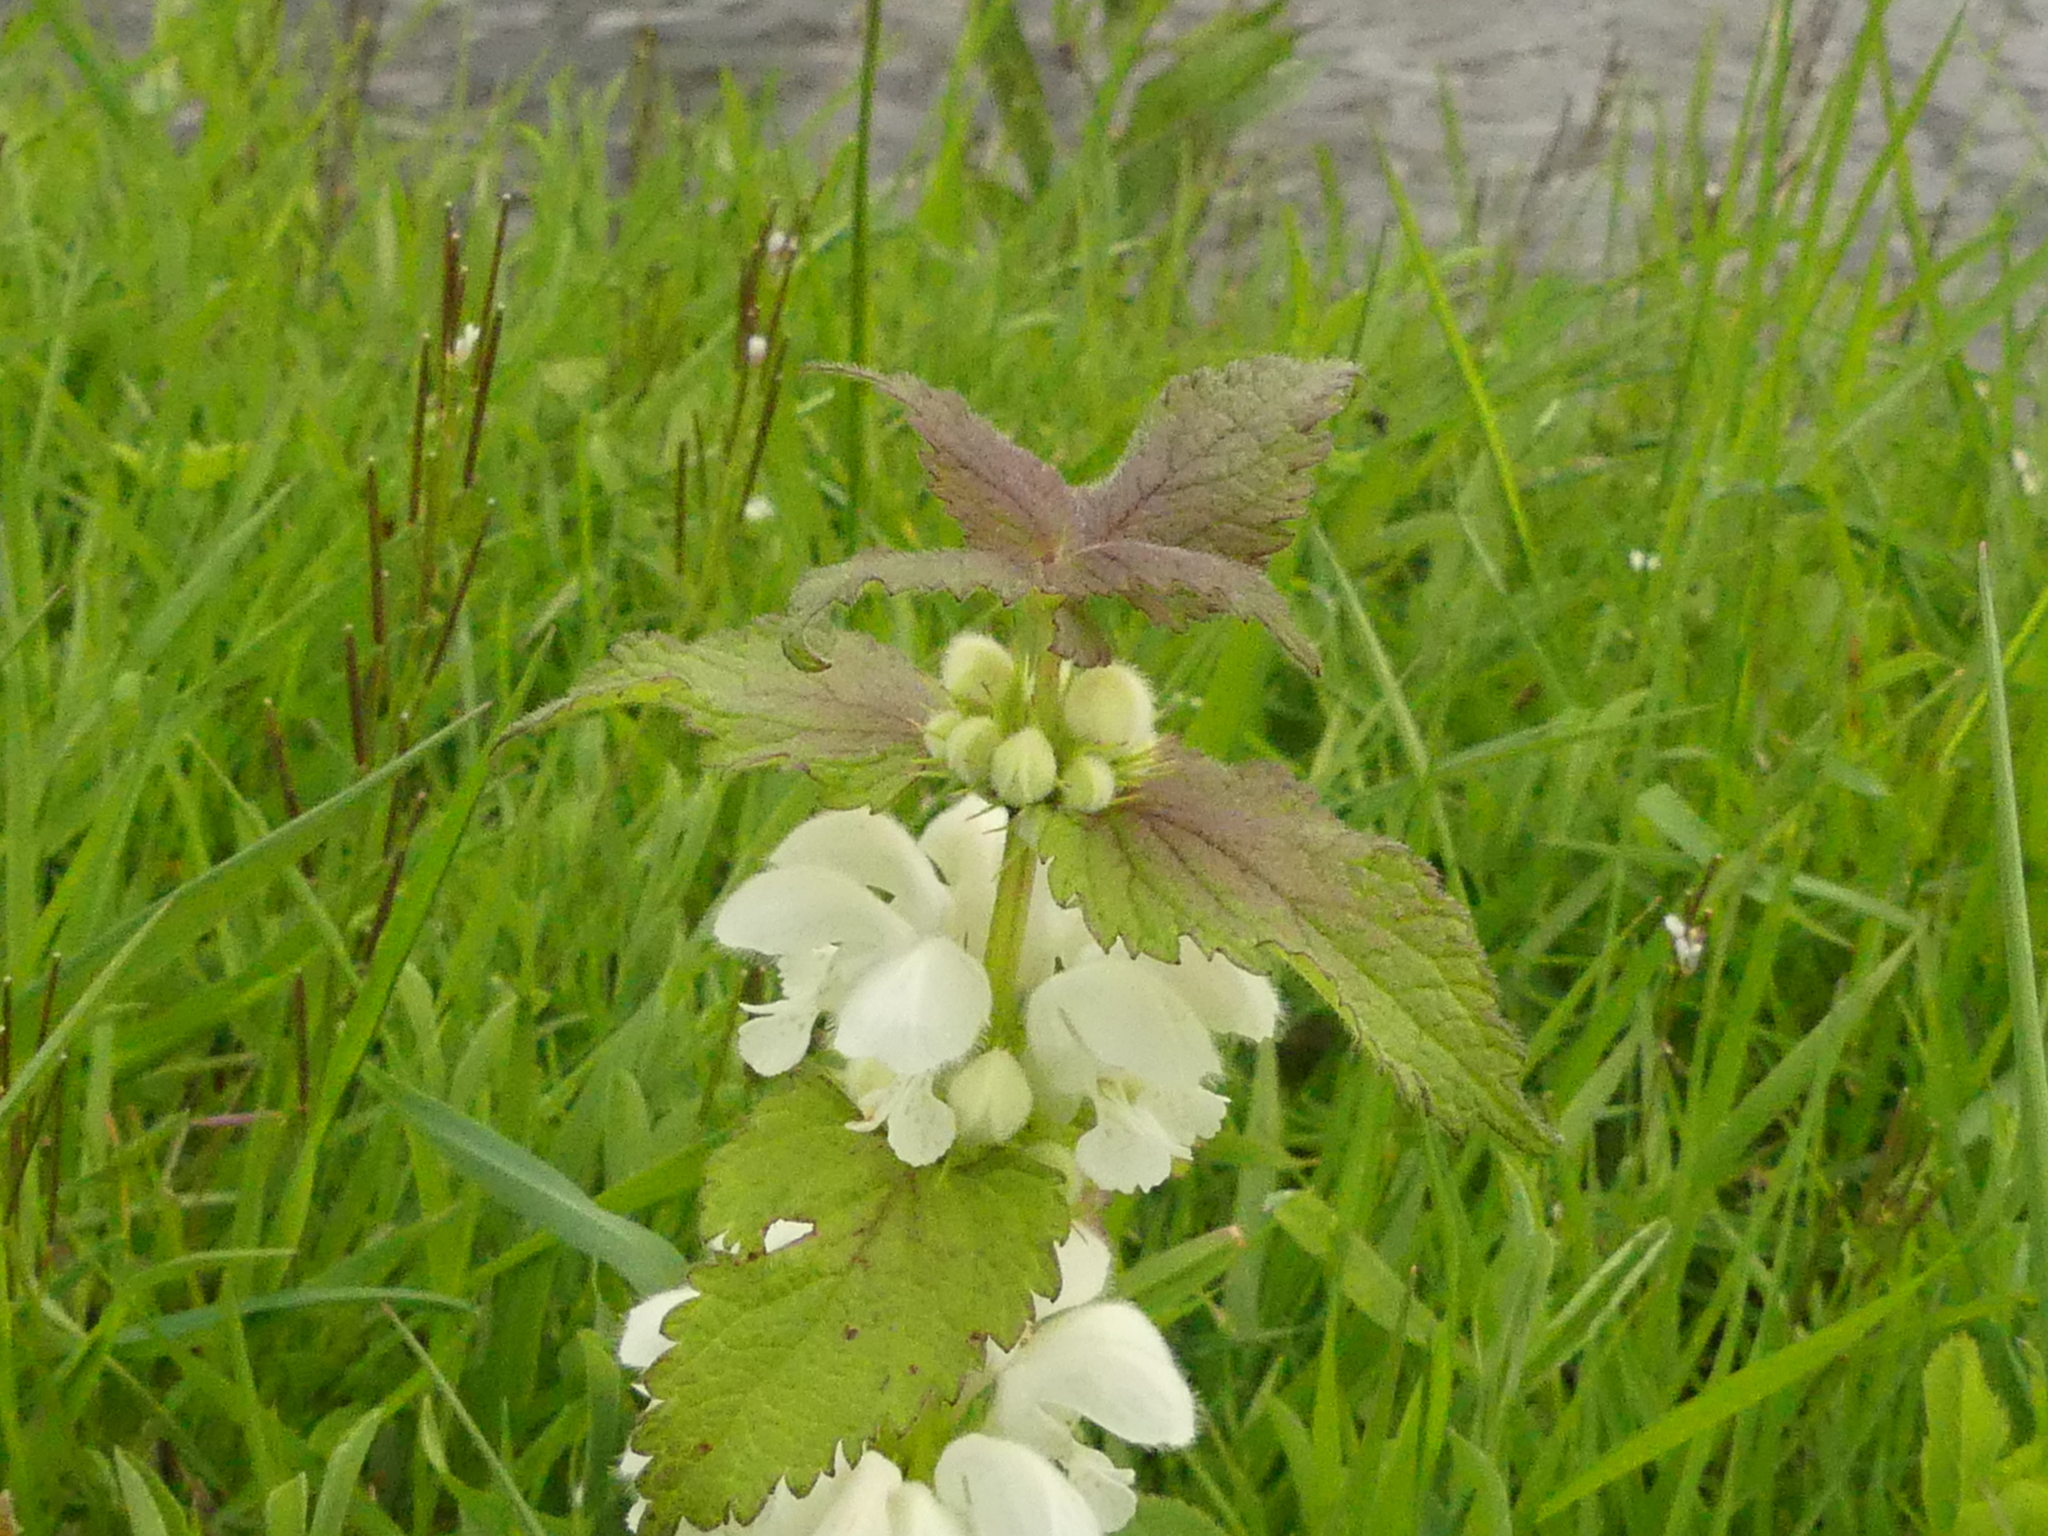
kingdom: Plantae
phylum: Tracheophyta
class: Magnoliopsida
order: Lamiales
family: Lamiaceae
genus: Lamium
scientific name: Lamium album
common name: White dead-nettle
